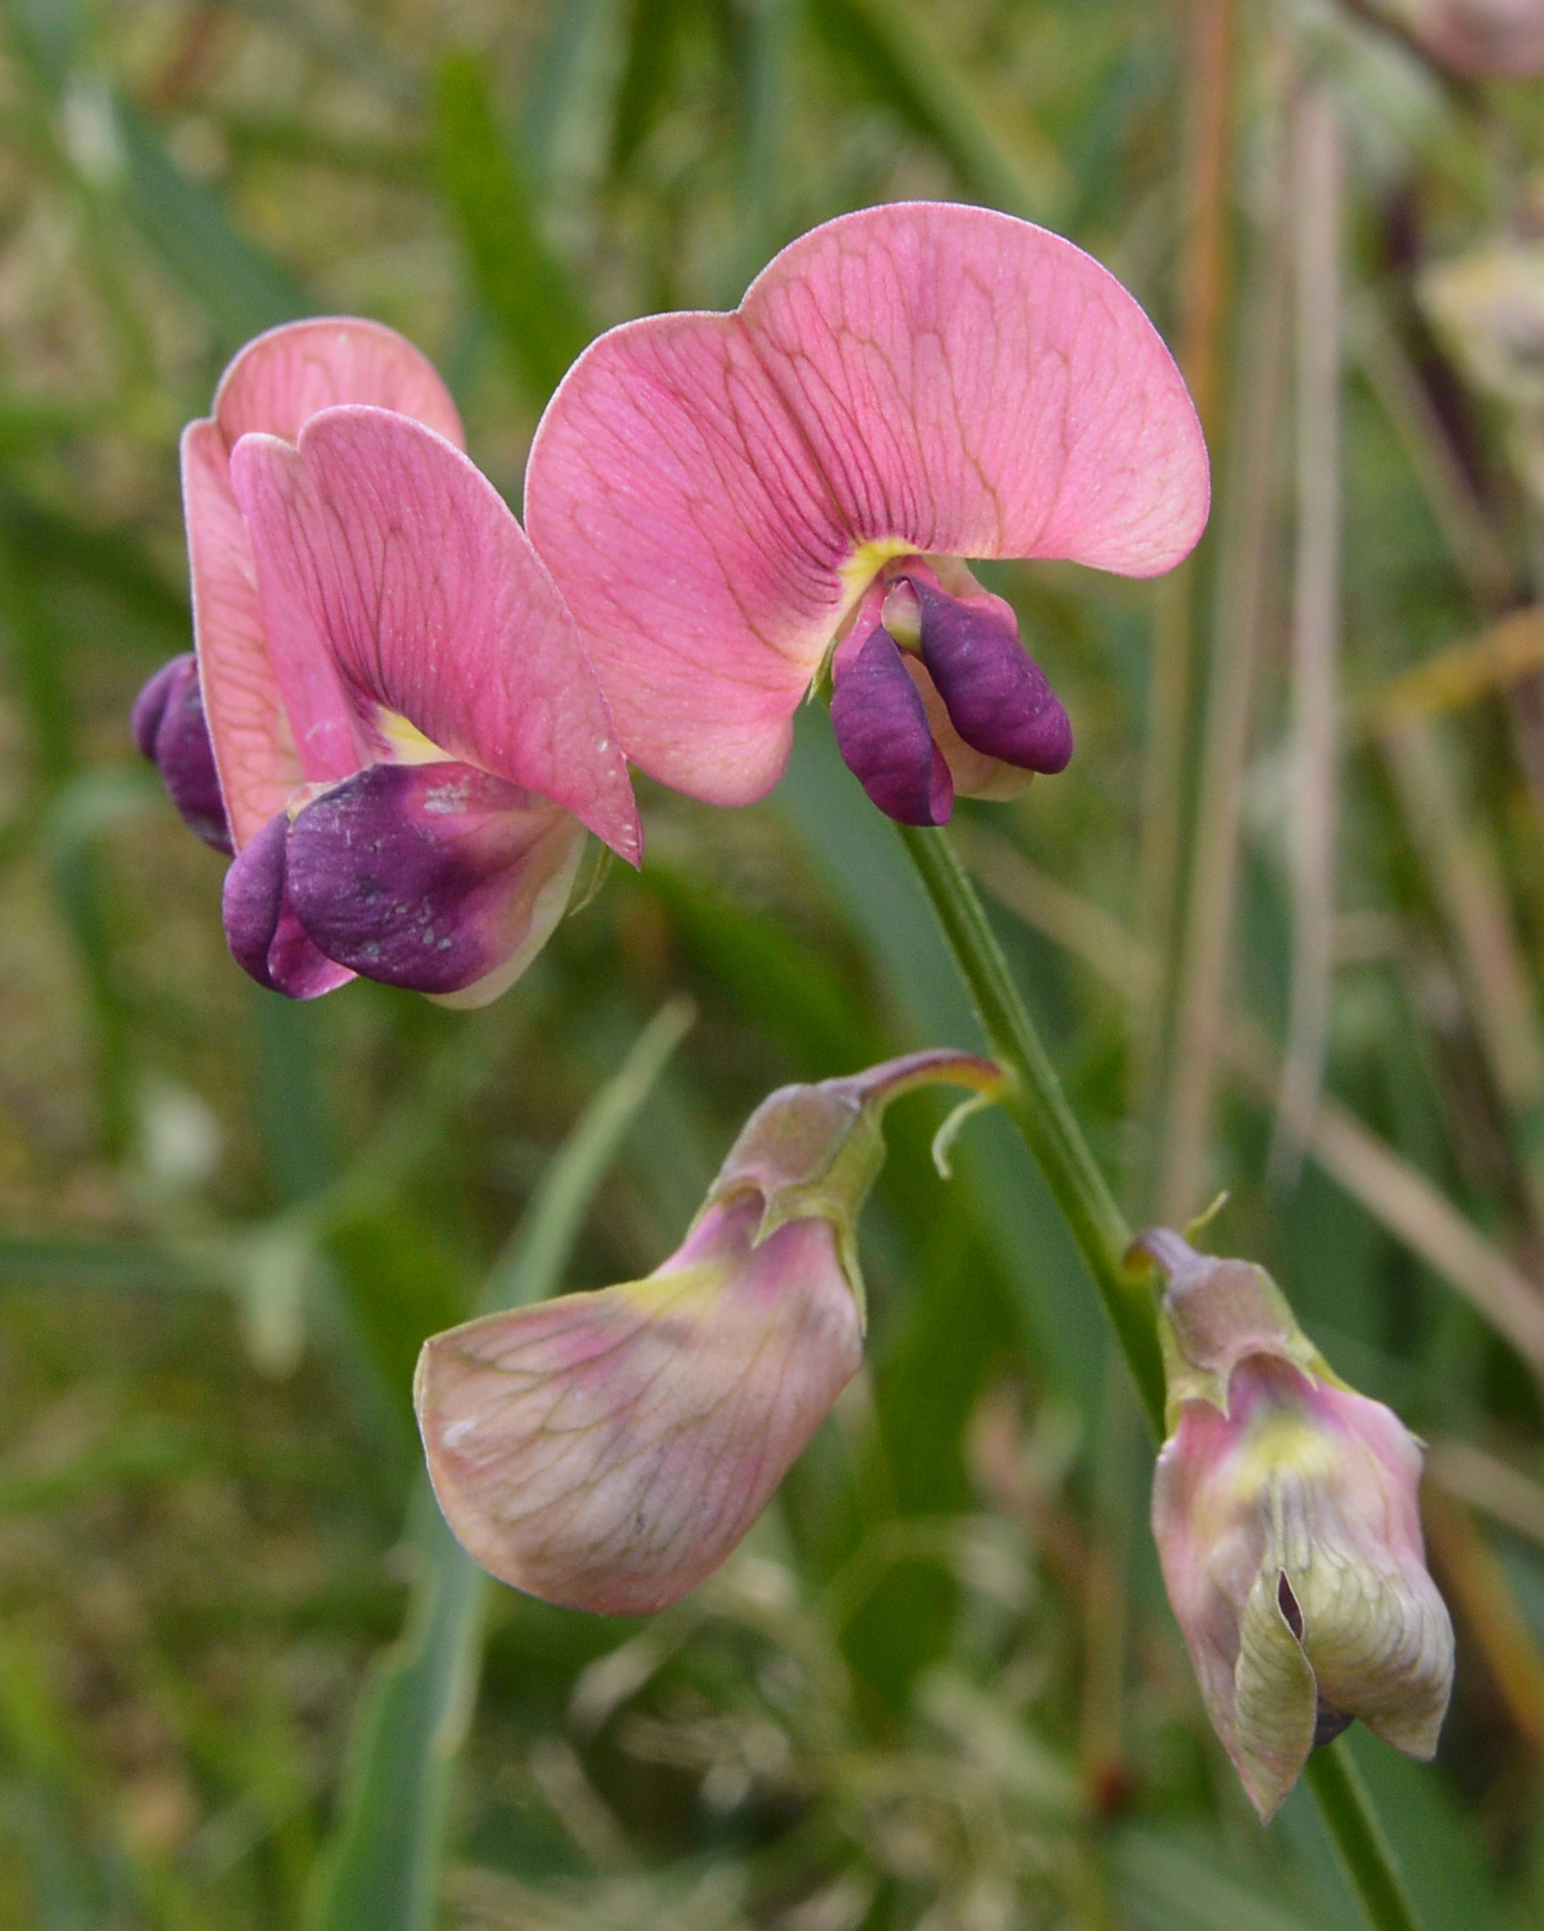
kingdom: Plantae
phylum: Tracheophyta
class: Magnoliopsida
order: Fabales
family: Fabaceae
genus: Lathyrus
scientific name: Lathyrus sylvestris
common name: Flat pea
